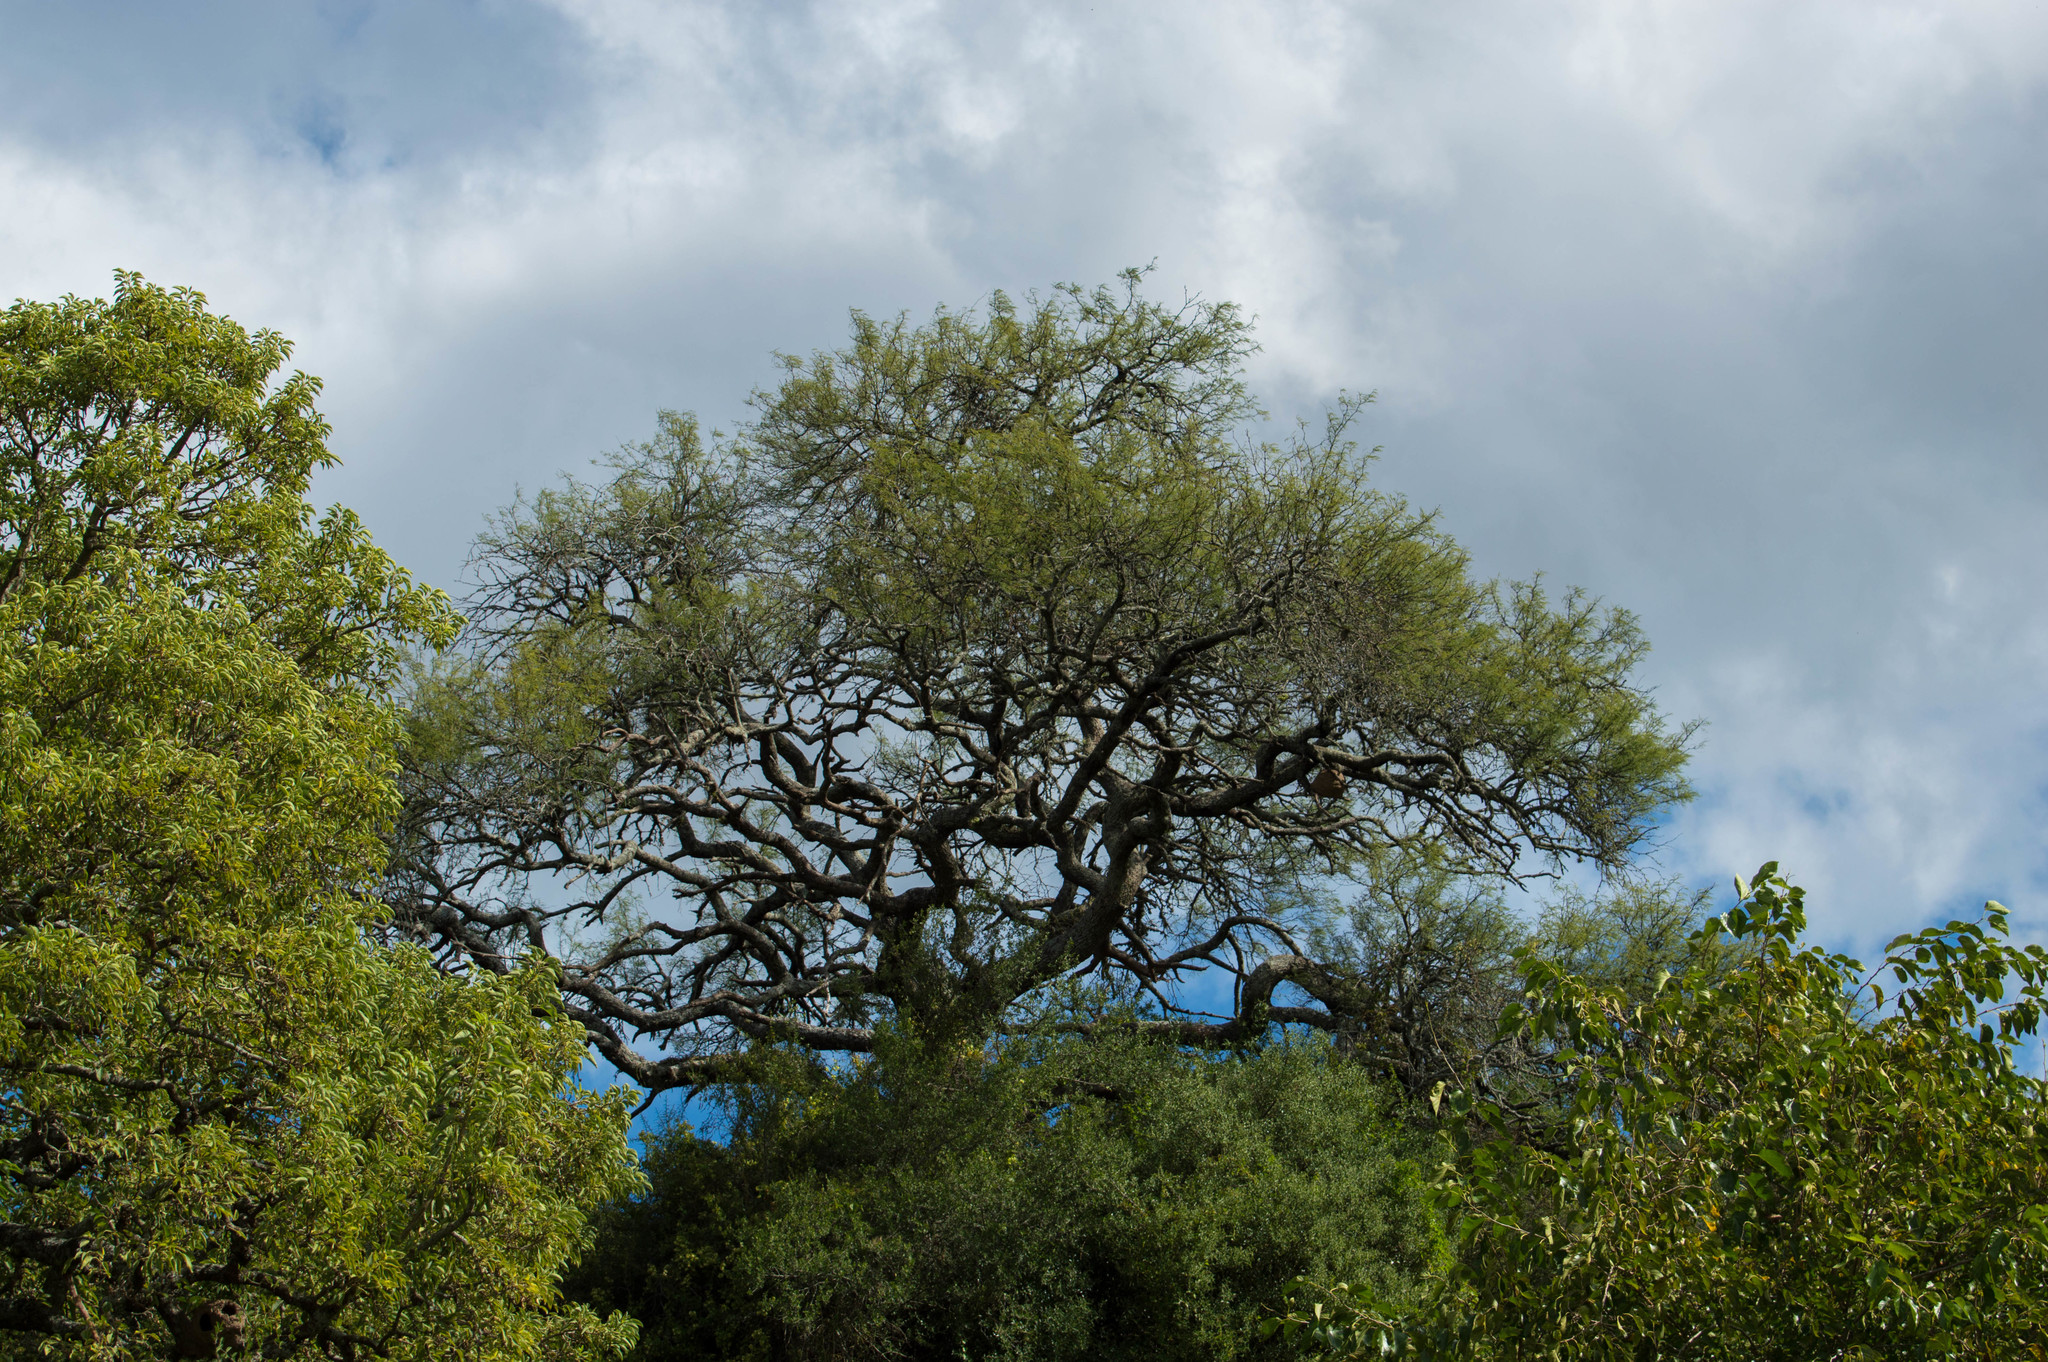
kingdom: Plantae
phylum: Tracheophyta
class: Magnoliopsida
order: Fabales
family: Fabaceae
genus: Prosopis
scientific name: Prosopis nigra
